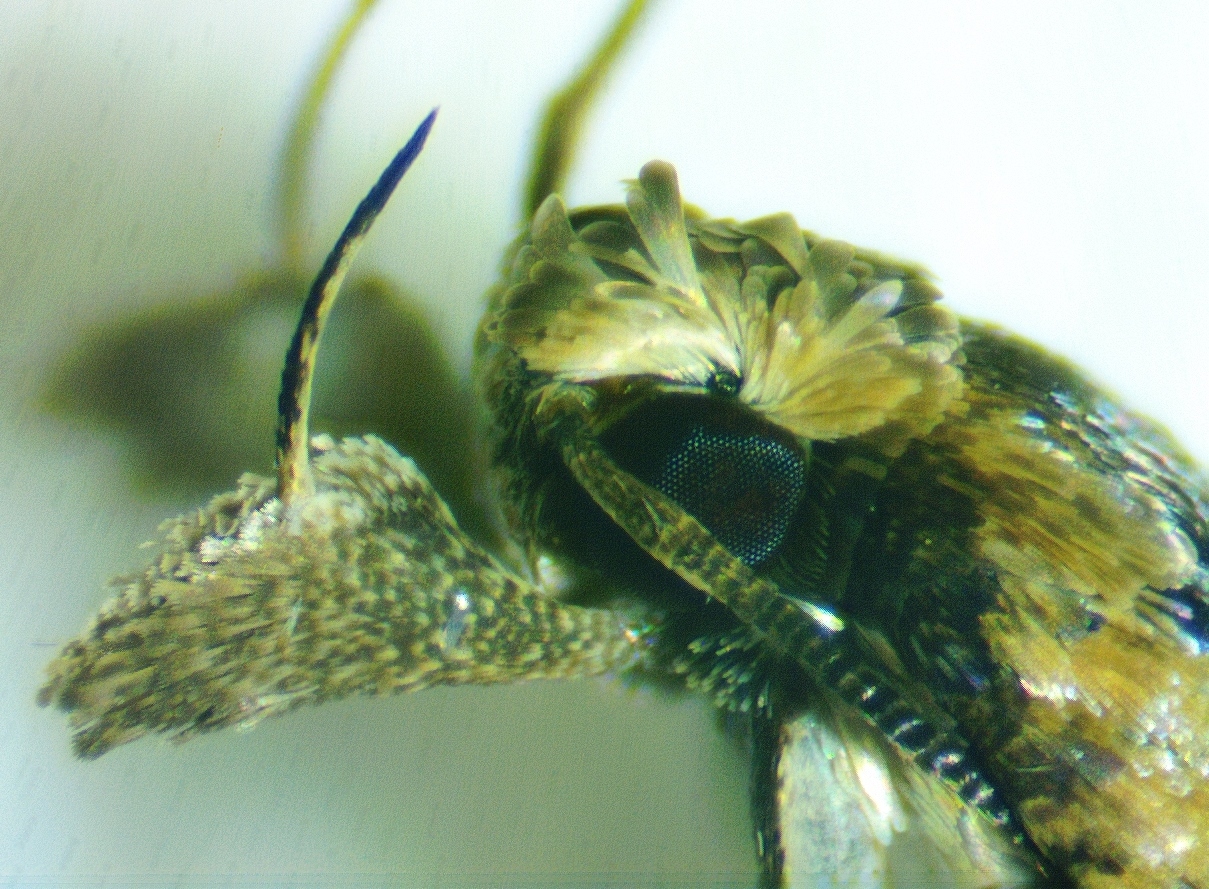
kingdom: Animalia
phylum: Arthropoda
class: Insecta
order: Lepidoptera
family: Gelechiidae
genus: Dichomeris
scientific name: Dichomeris ligulella
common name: Moth
